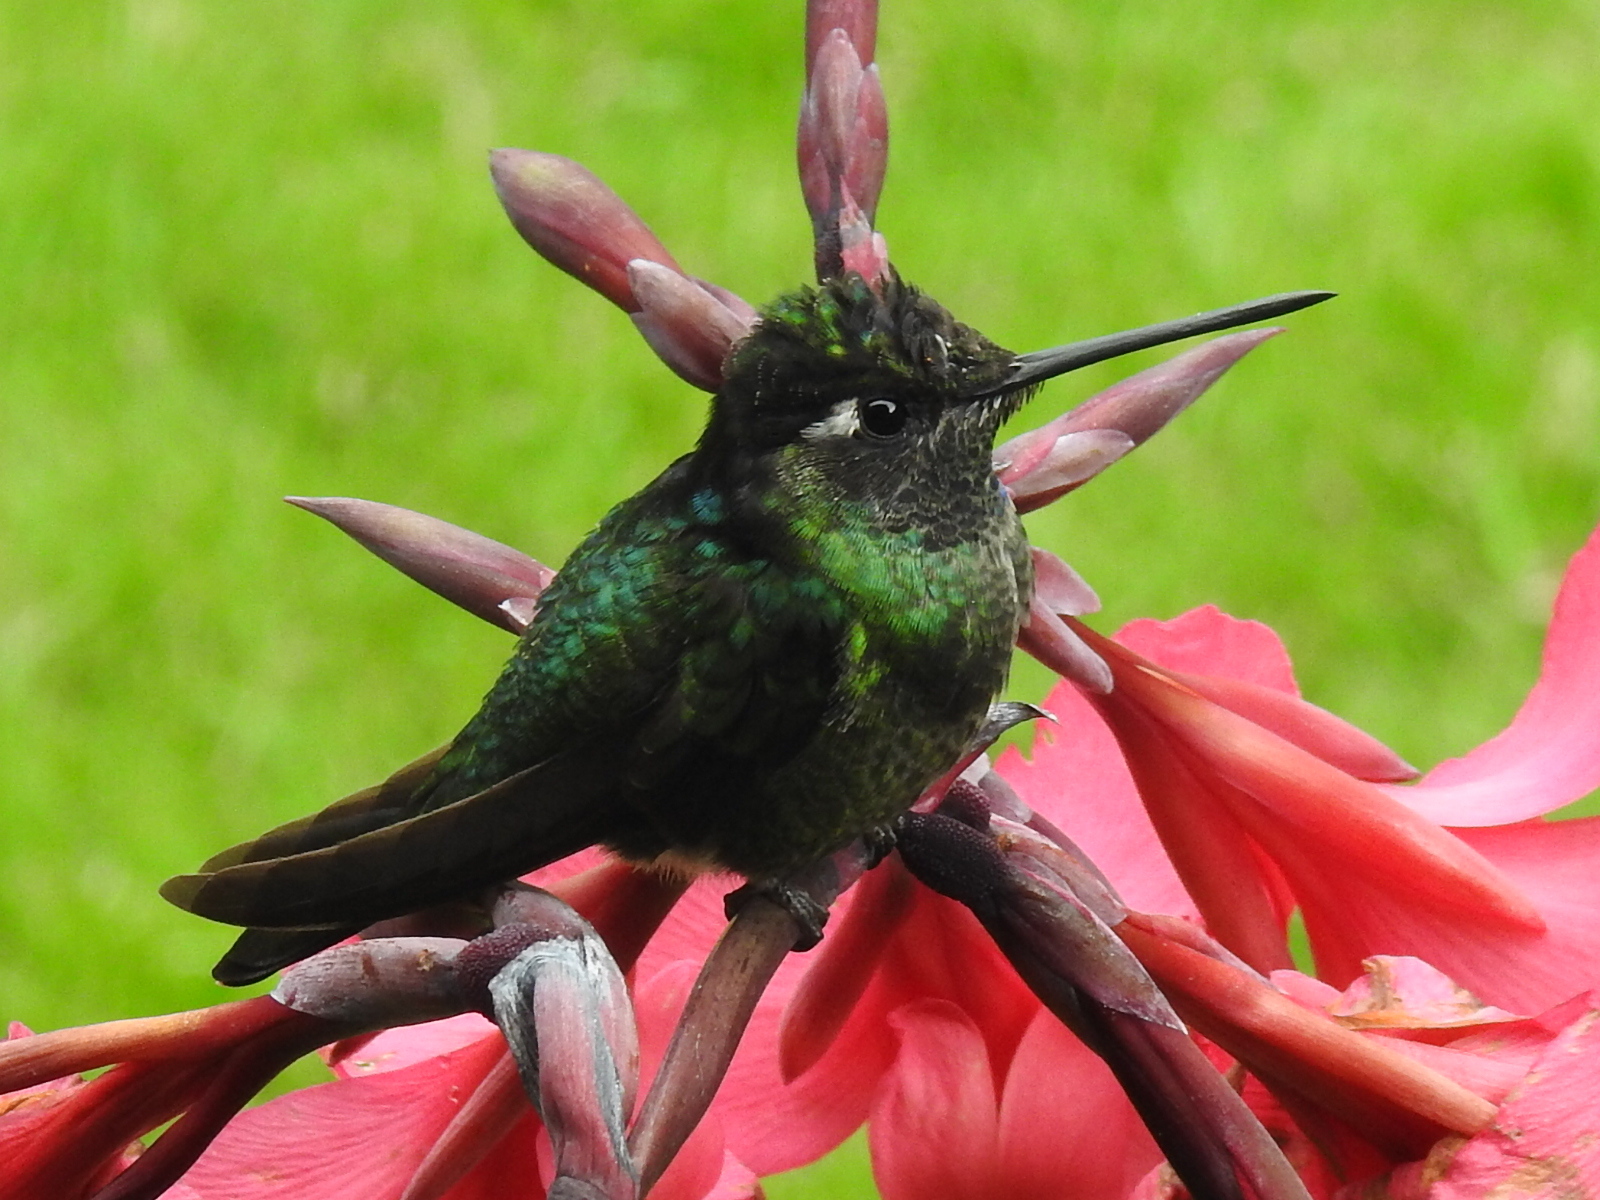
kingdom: Animalia
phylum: Chordata
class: Aves
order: Apodiformes
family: Trochilidae
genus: Eugenes
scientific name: Eugenes spectabilis
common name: Talamanca hummingbird
